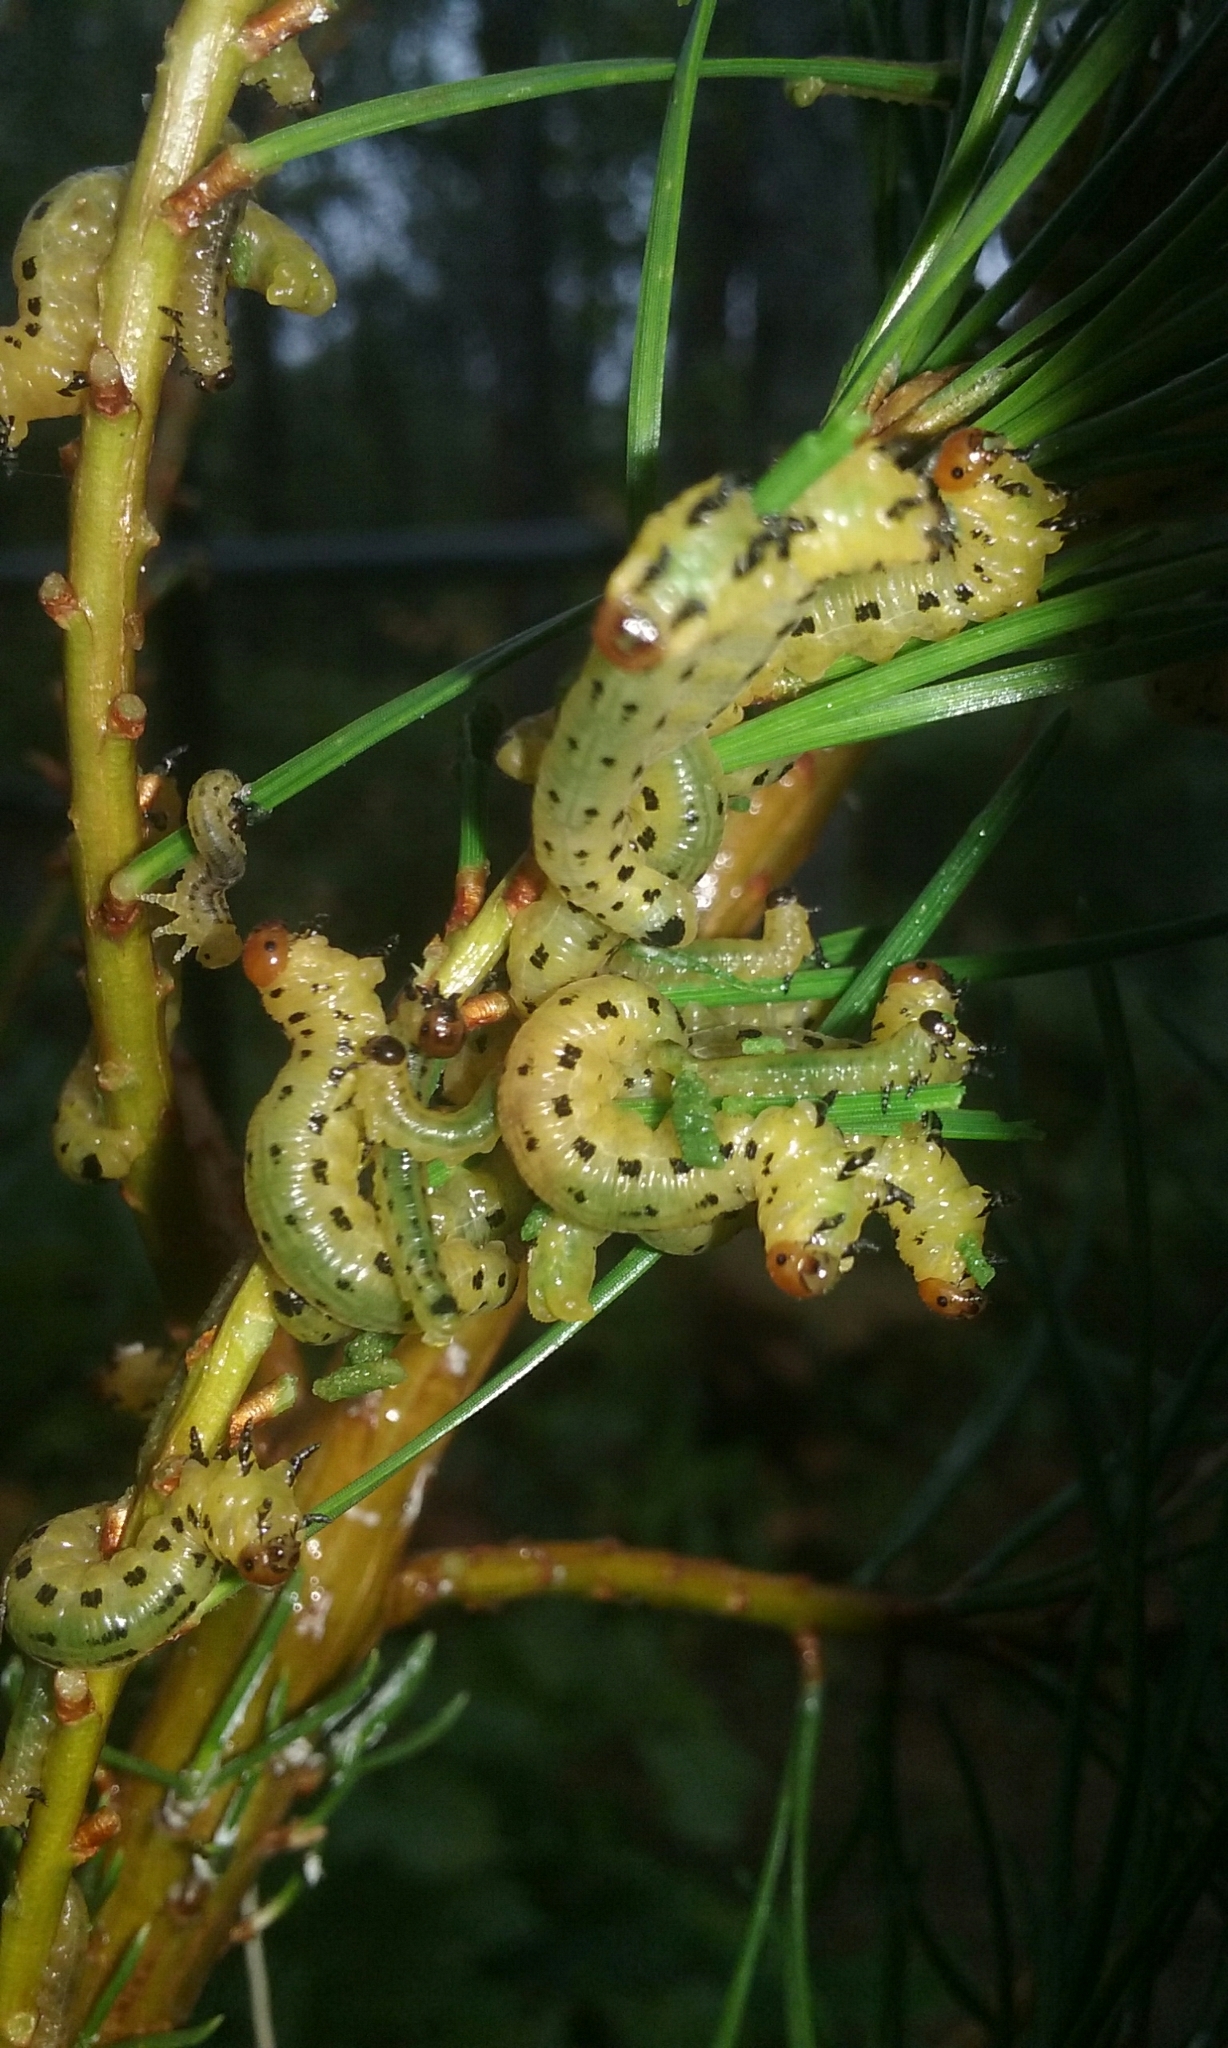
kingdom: Animalia
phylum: Arthropoda
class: Insecta
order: Hymenoptera
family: Diprionidae
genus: Neodiprion
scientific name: Neodiprion lecontei
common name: Redheaded pine sawfly
